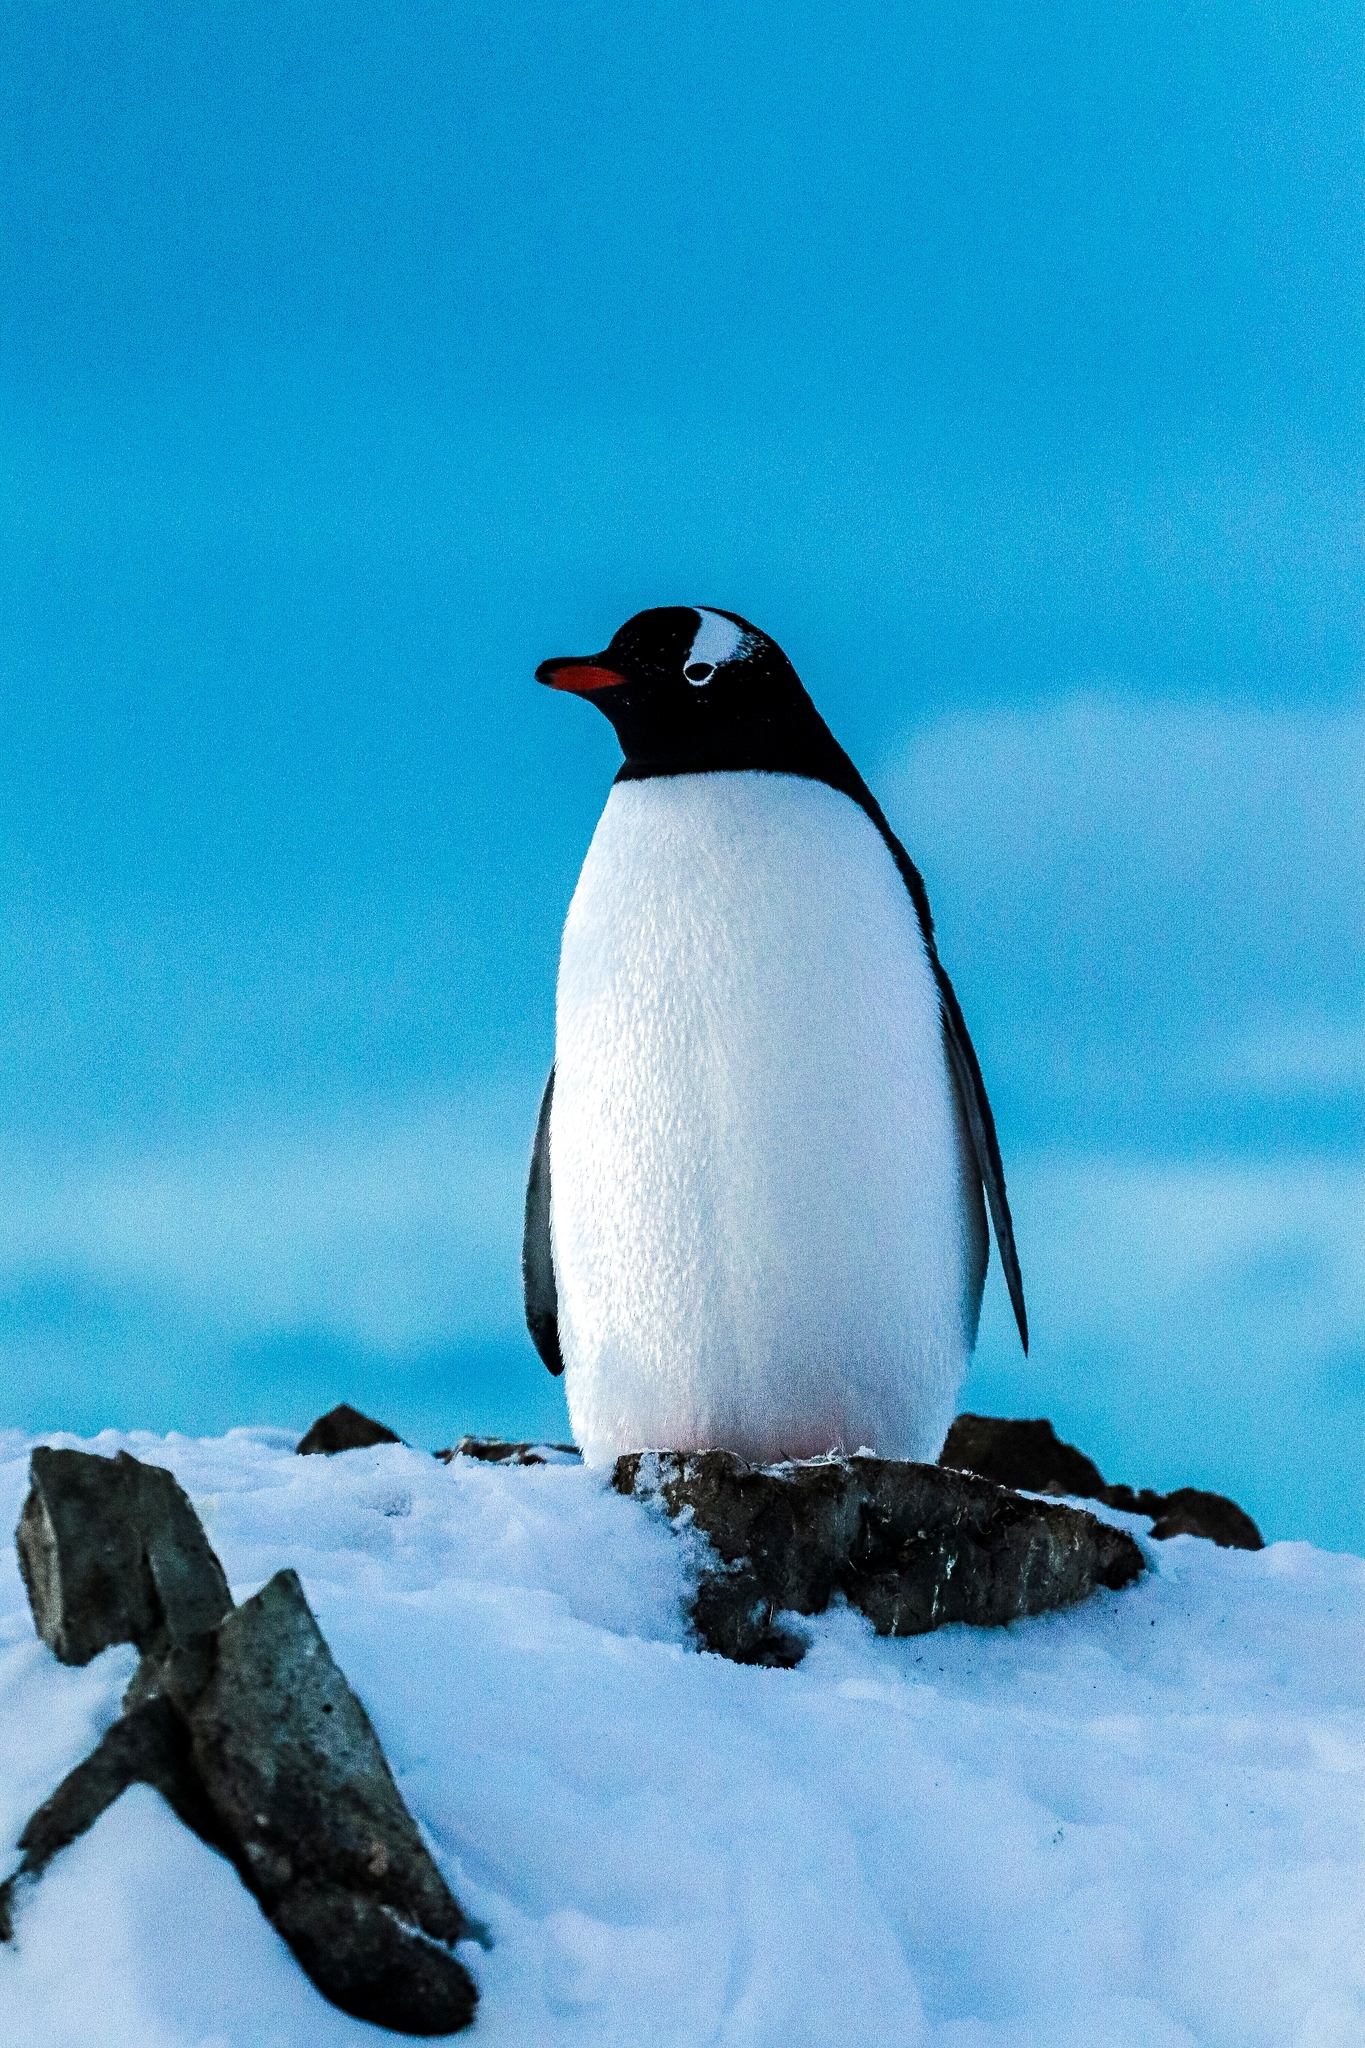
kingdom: Animalia
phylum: Chordata
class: Aves
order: Sphenisciformes
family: Spheniscidae
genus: Pygoscelis
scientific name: Pygoscelis papua
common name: Gentoo penguin
